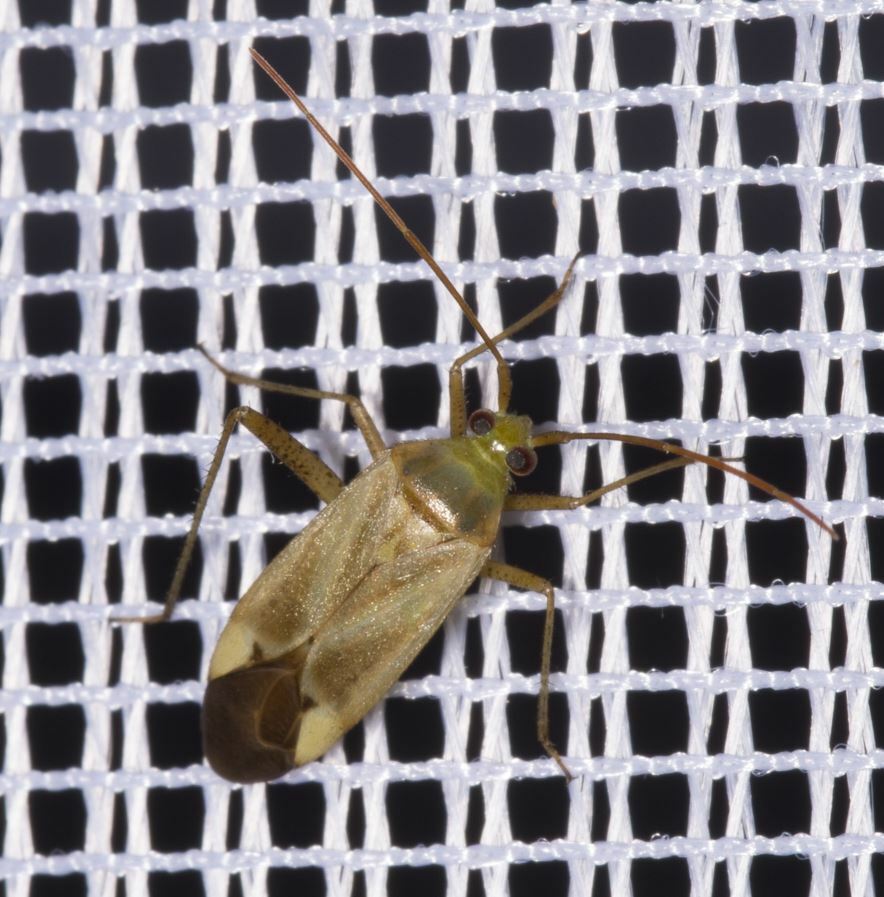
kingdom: Animalia
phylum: Arthropoda
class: Insecta
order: Hemiptera
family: Miridae
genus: Adelphocoris
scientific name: Adelphocoris lineolatus
